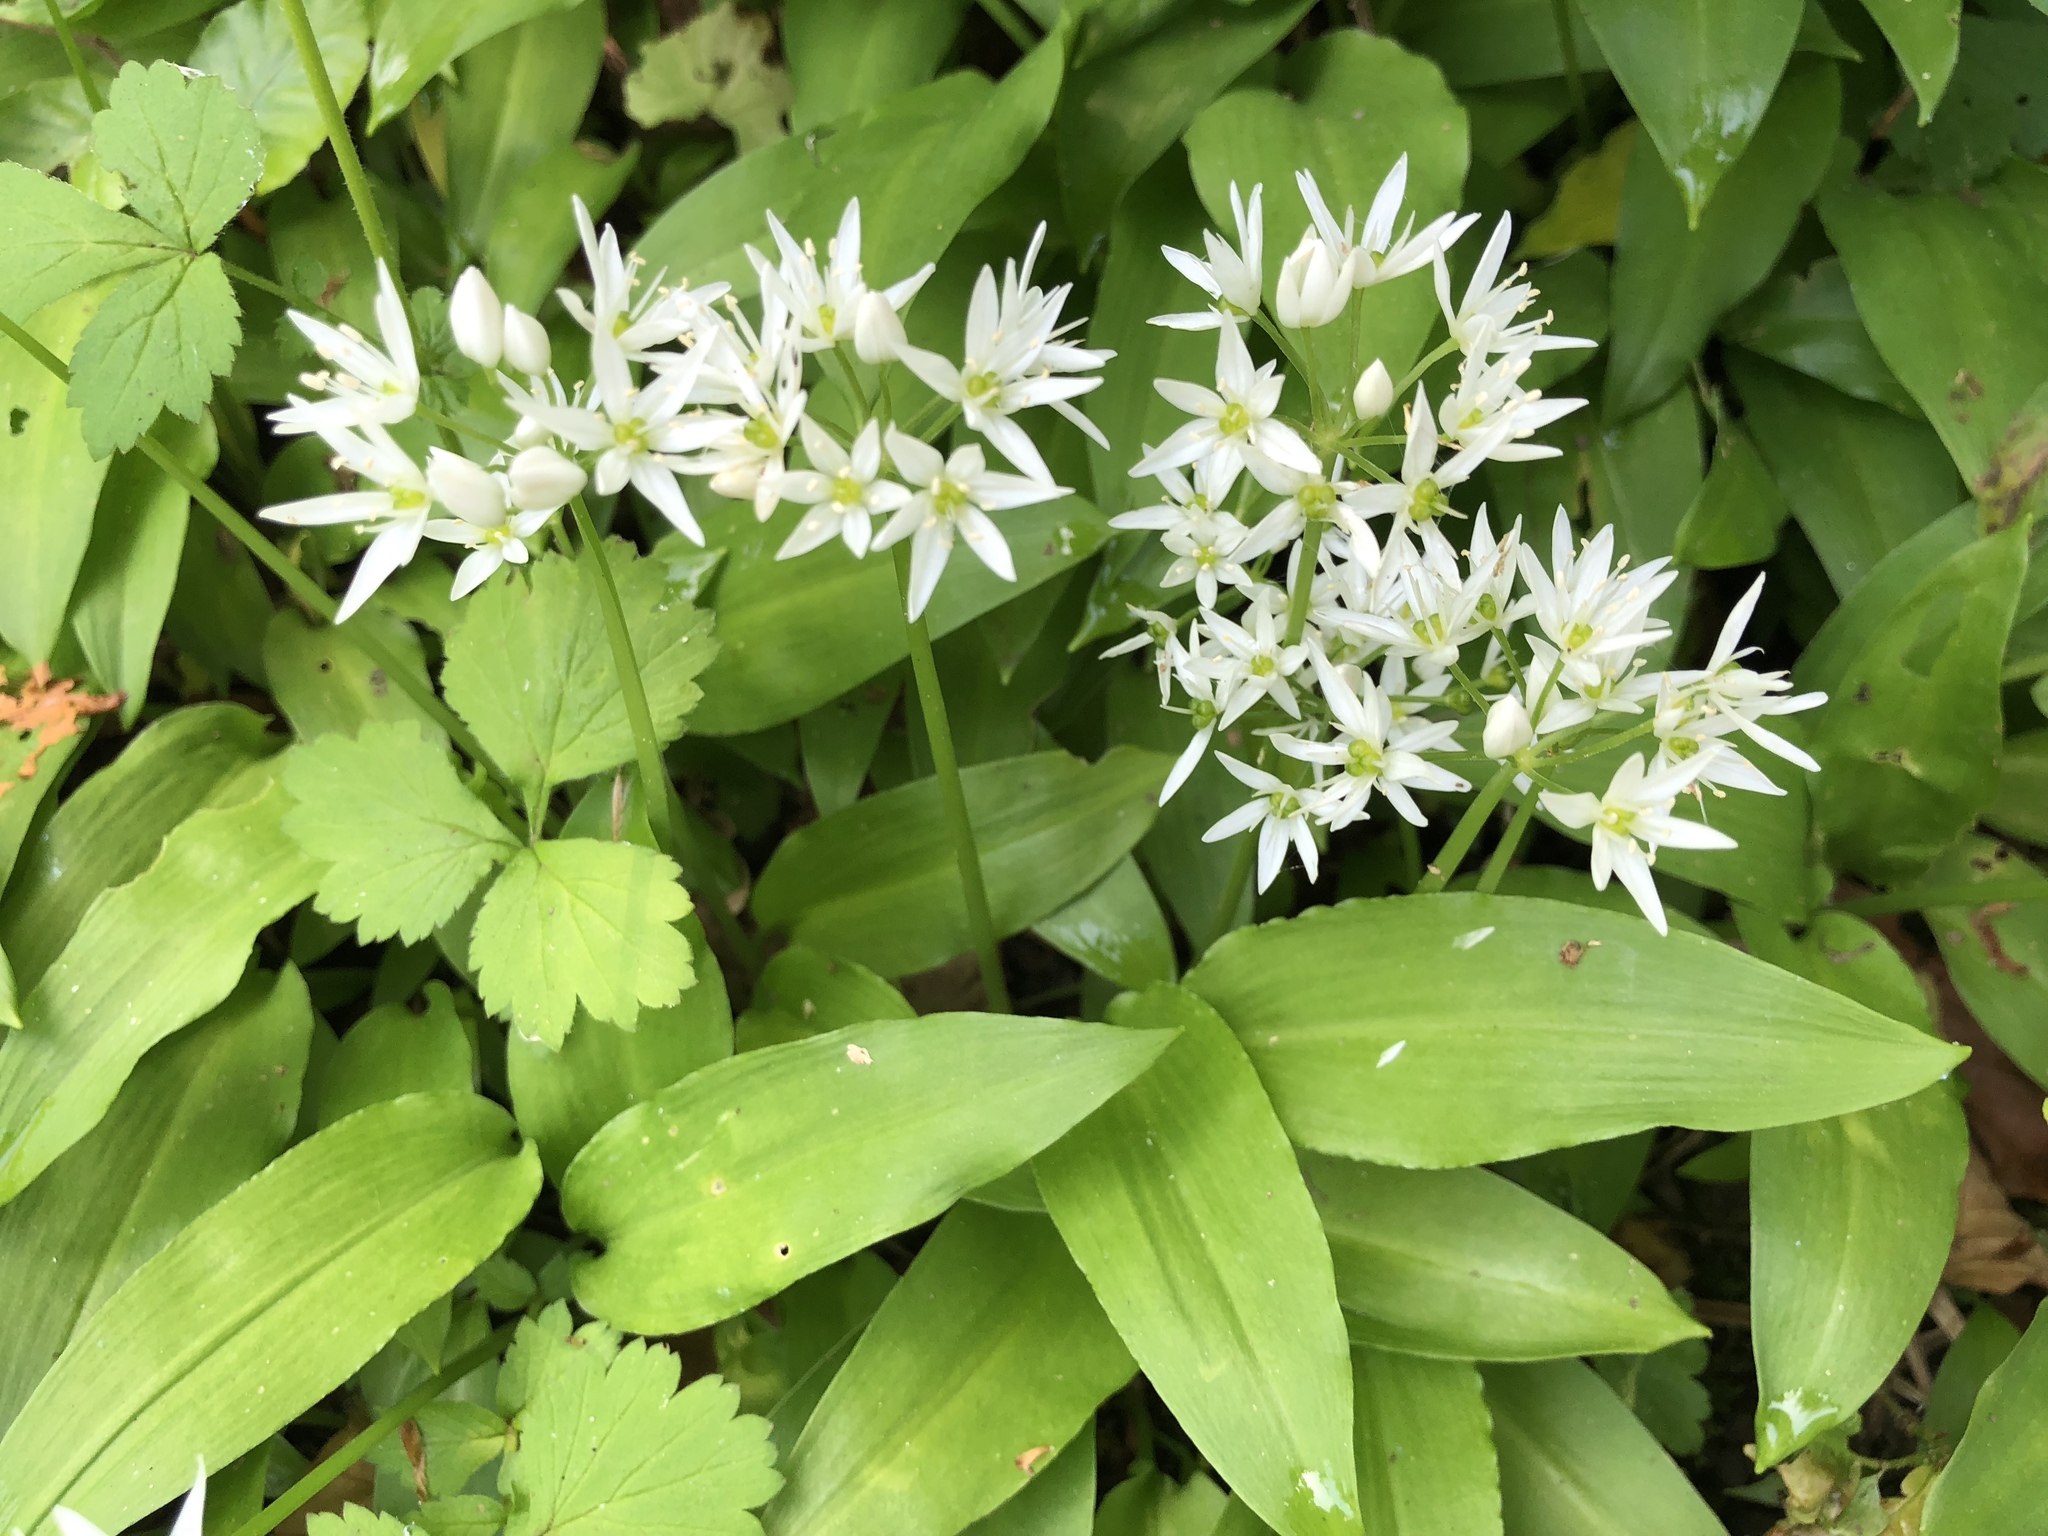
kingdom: Plantae
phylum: Tracheophyta
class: Liliopsida
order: Asparagales
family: Amaryllidaceae
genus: Allium
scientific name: Allium ursinum
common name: Ramsons
